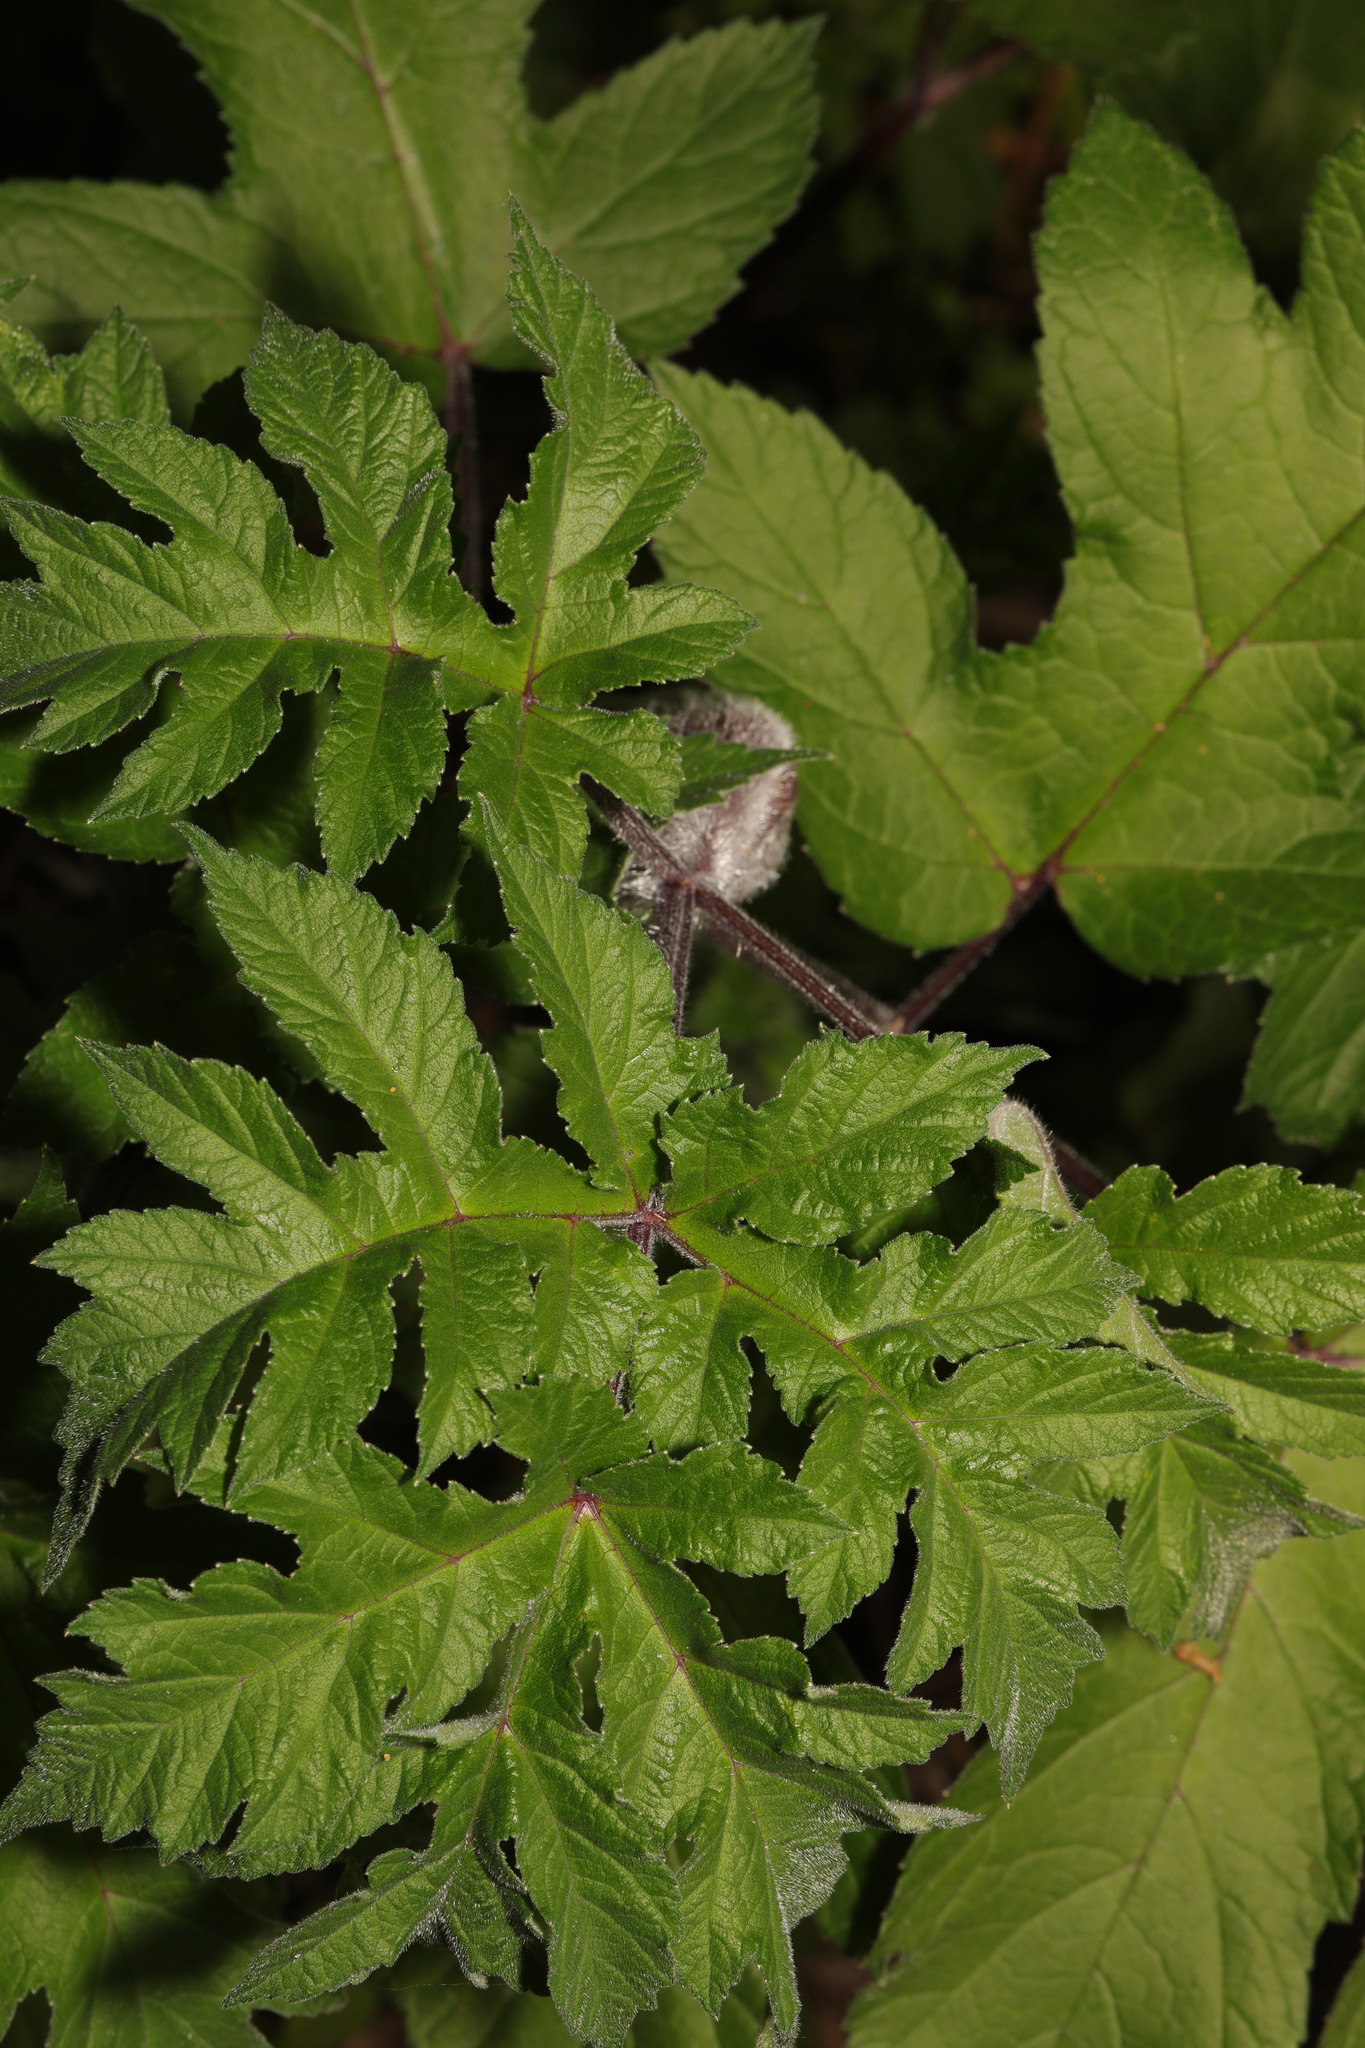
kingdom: Plantae
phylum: Tracheophyta
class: Magnoliopsida
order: Apiales
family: Apiaceae
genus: Heracleum
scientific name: Heracleum sphondylium
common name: Hogweed
